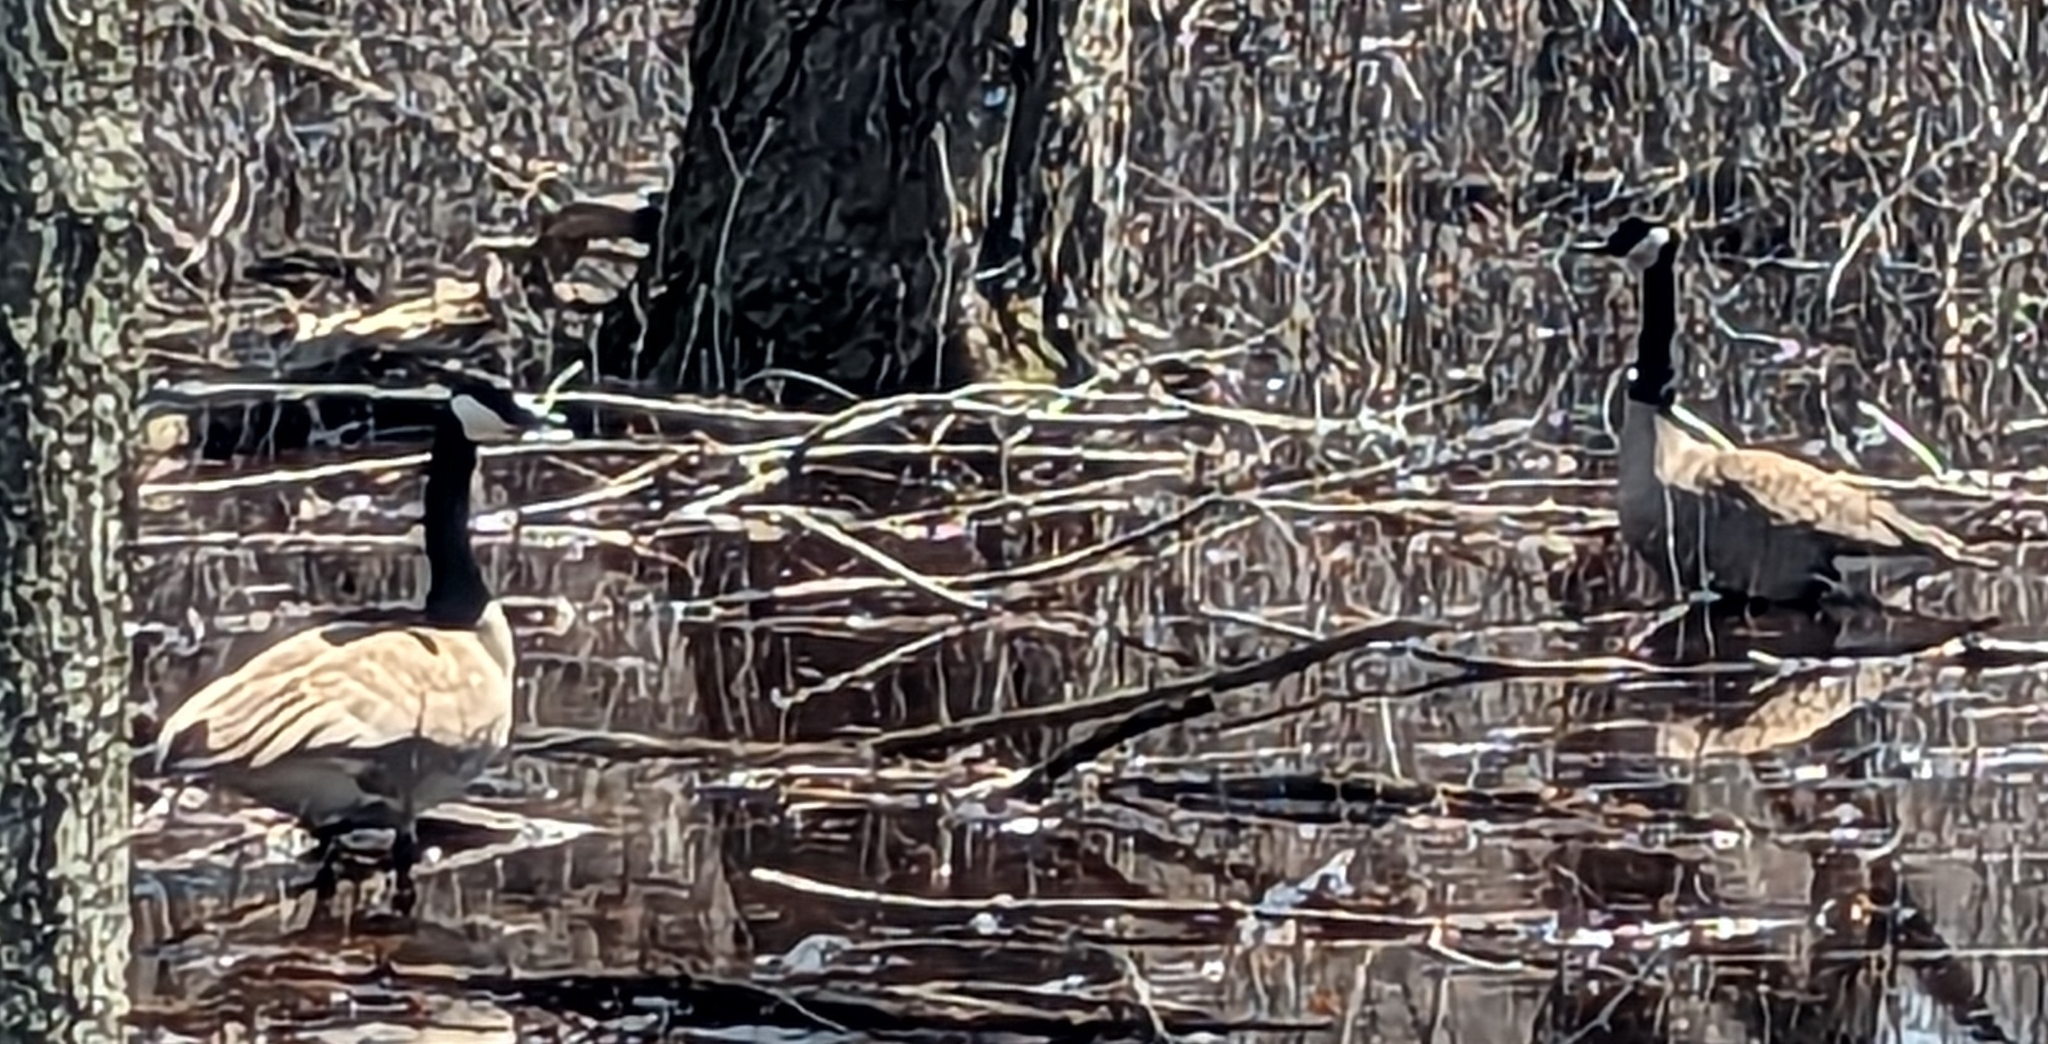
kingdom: Animalia
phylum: Chordata
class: Aves
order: Anseriformes
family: Anatidae
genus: Branta
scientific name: Branta canadensis
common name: Canada goose
